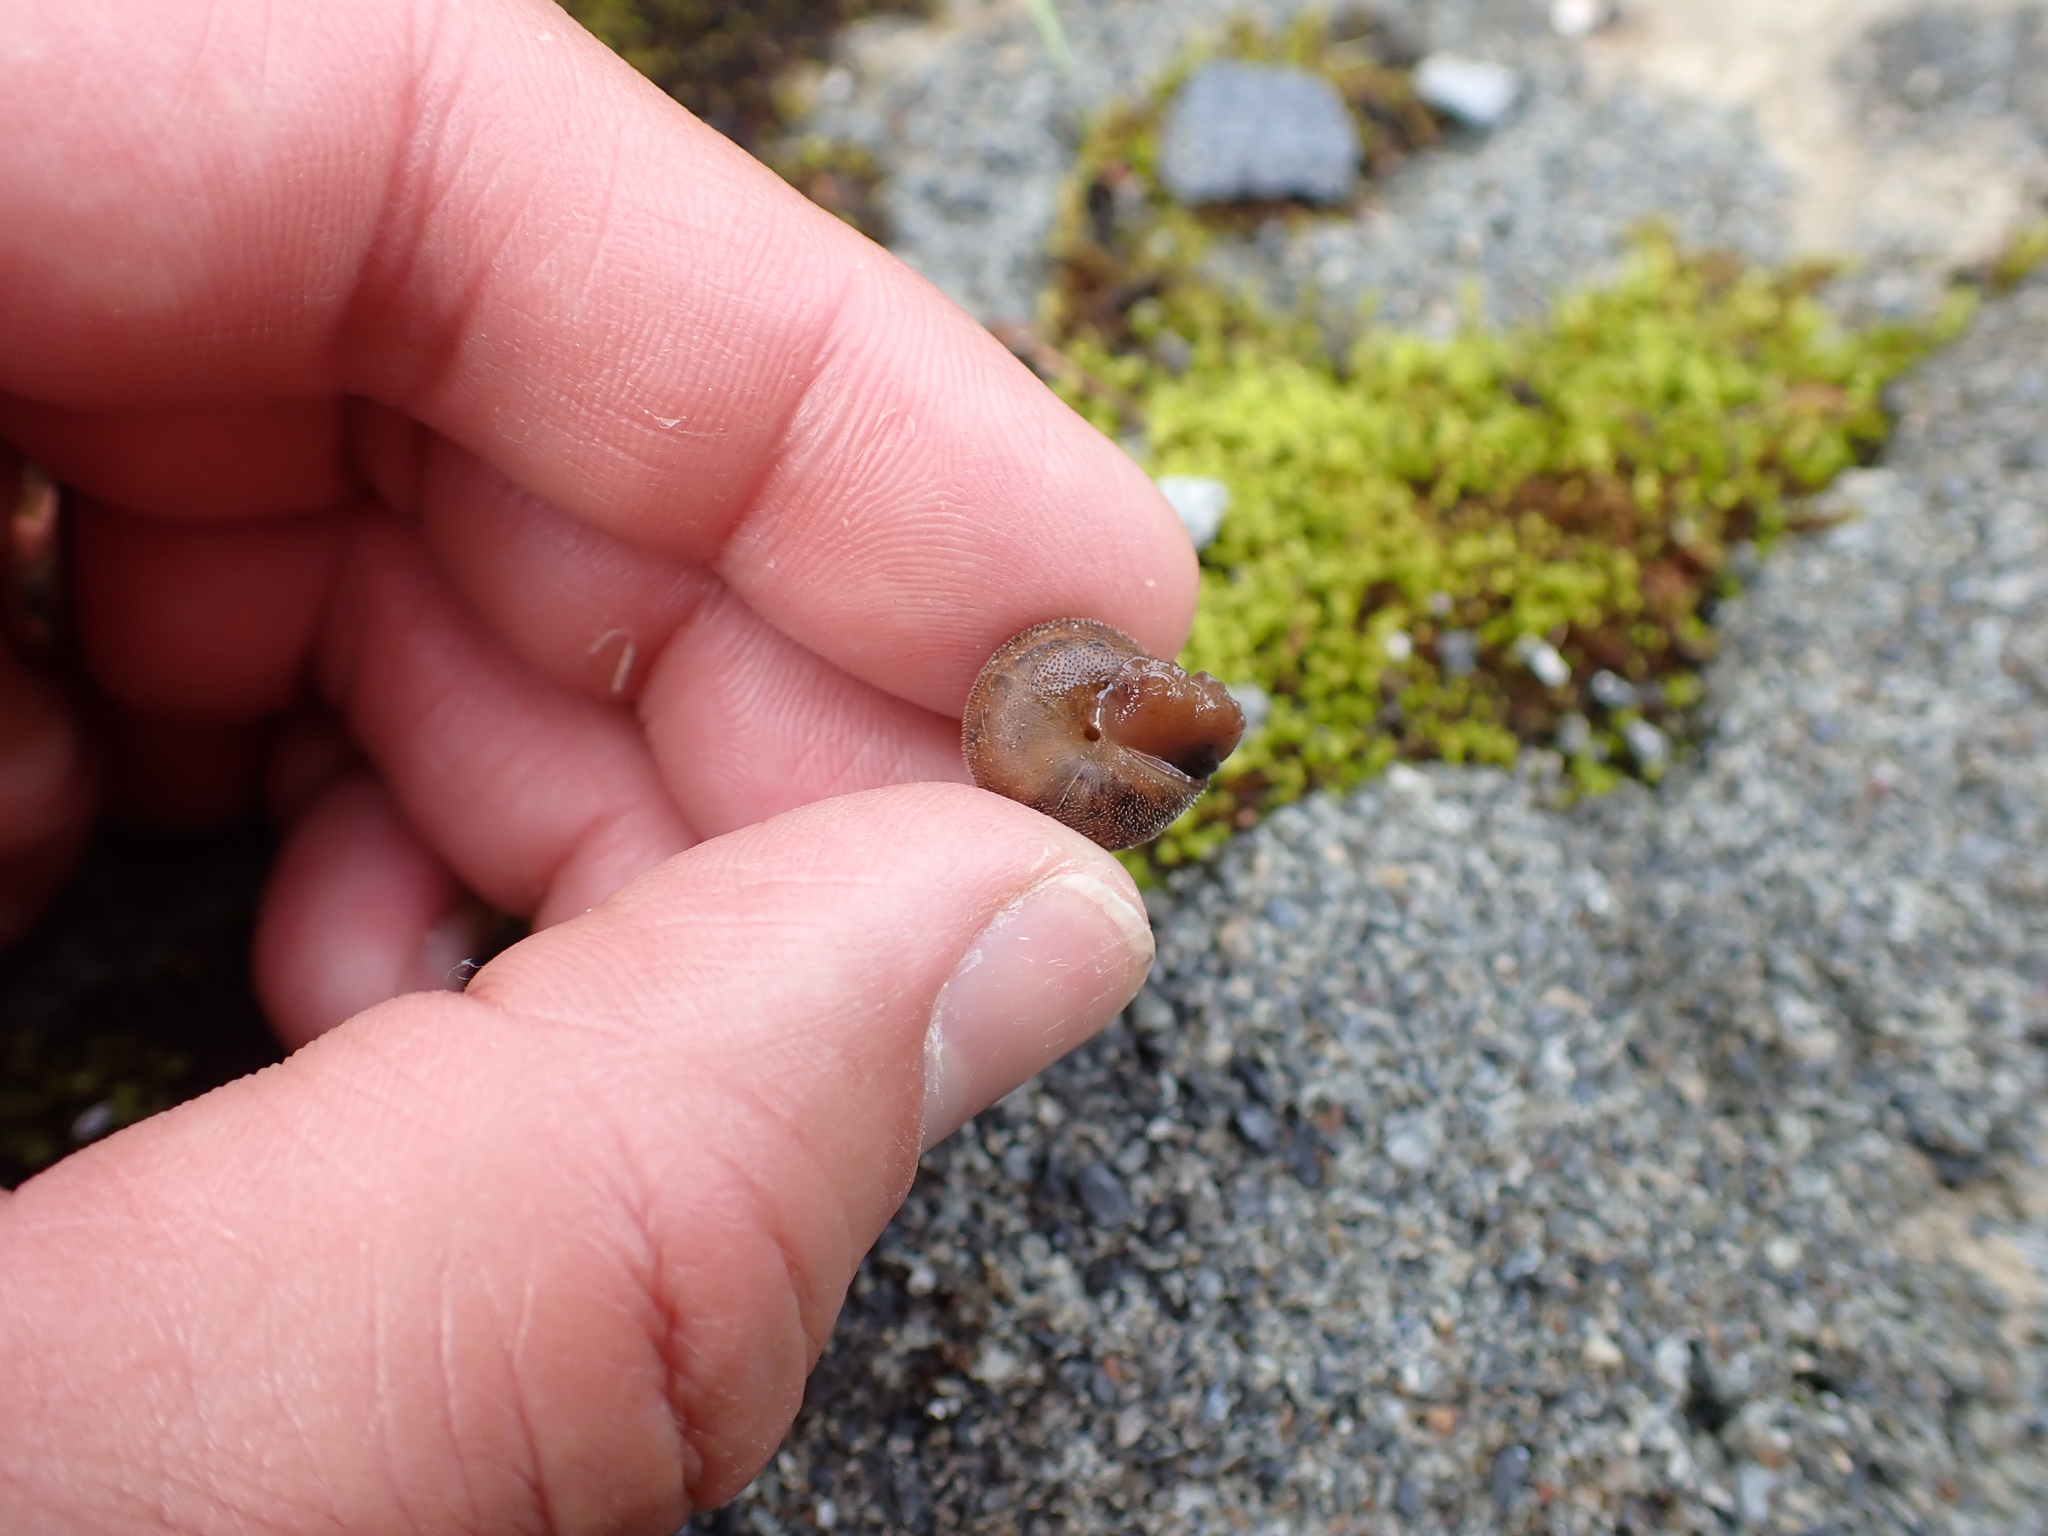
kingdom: Animalia
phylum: Mollusca
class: Gastropoda
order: Stylommatophora
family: Polygyridae
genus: Vespericola
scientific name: Vespericola columbianus
